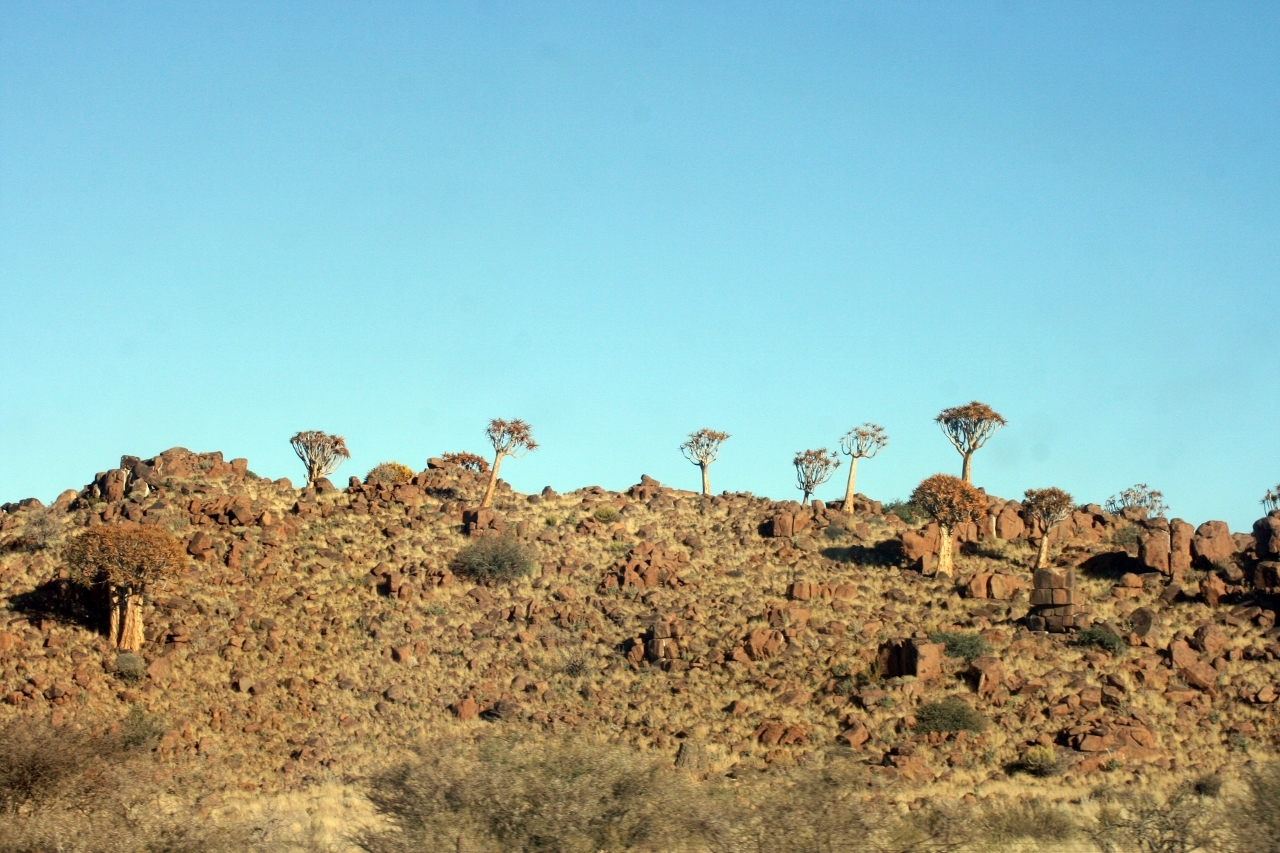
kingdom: Plantae
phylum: Tracheophyta
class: Liliopsida
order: Asparagales
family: Asphodelaceae
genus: Aloidendron
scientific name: Aloidendron dichotomum
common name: Quiver tree
